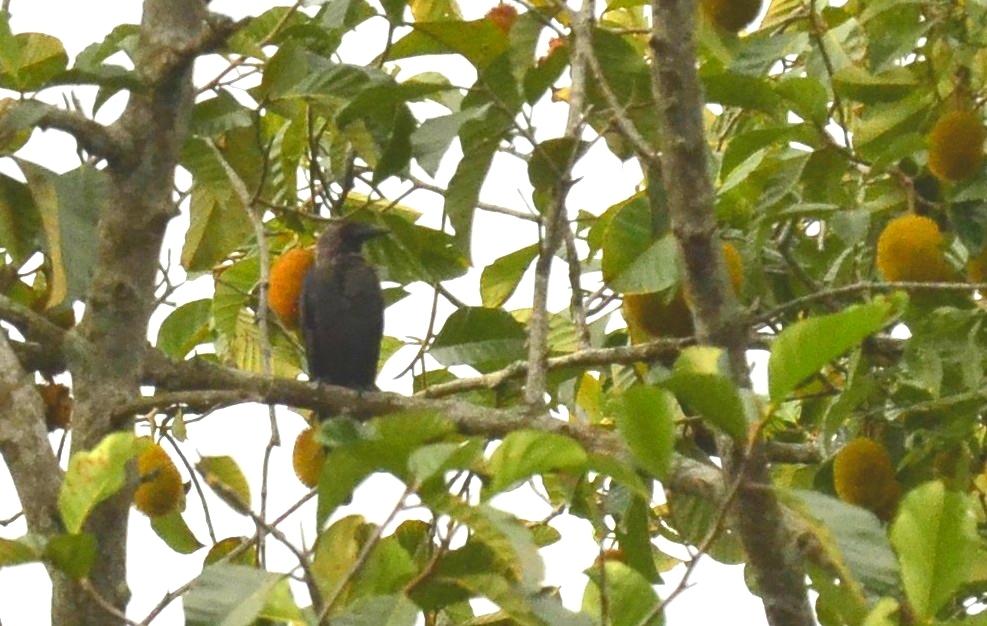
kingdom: Animalia
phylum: Chordata
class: Aves
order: Passeriformes
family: Corvidae
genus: Corvus
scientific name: Corvus splendens
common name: House crow
